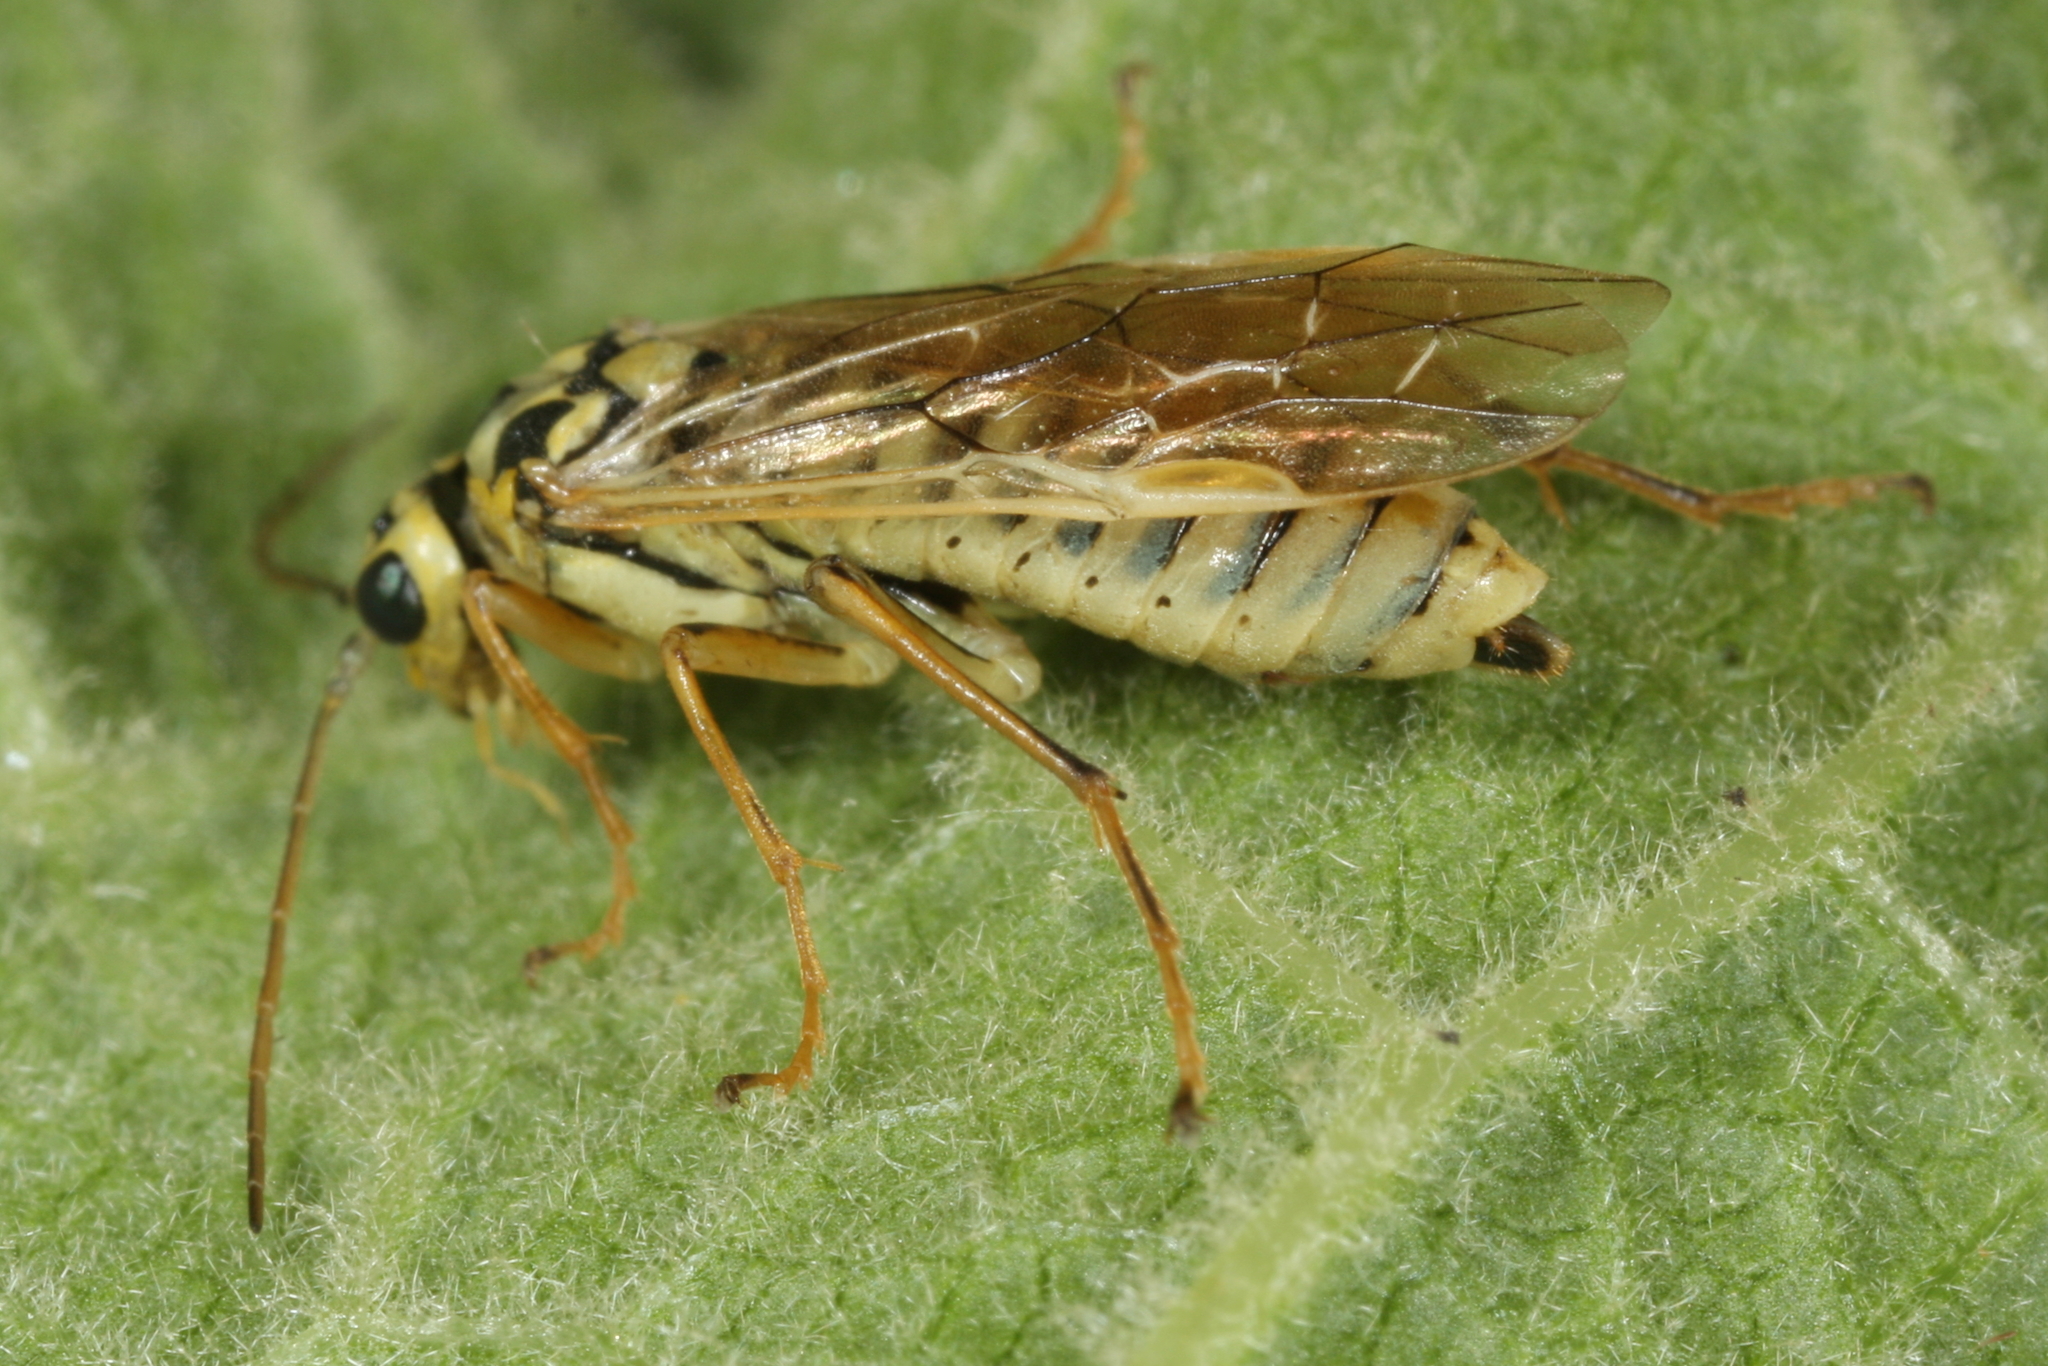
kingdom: Animalia
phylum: Arthropoda
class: Insecta
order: Hymenoptera
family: Tenthredinidae
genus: Aglaostigma
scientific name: Aglaostigma lichtwardti
